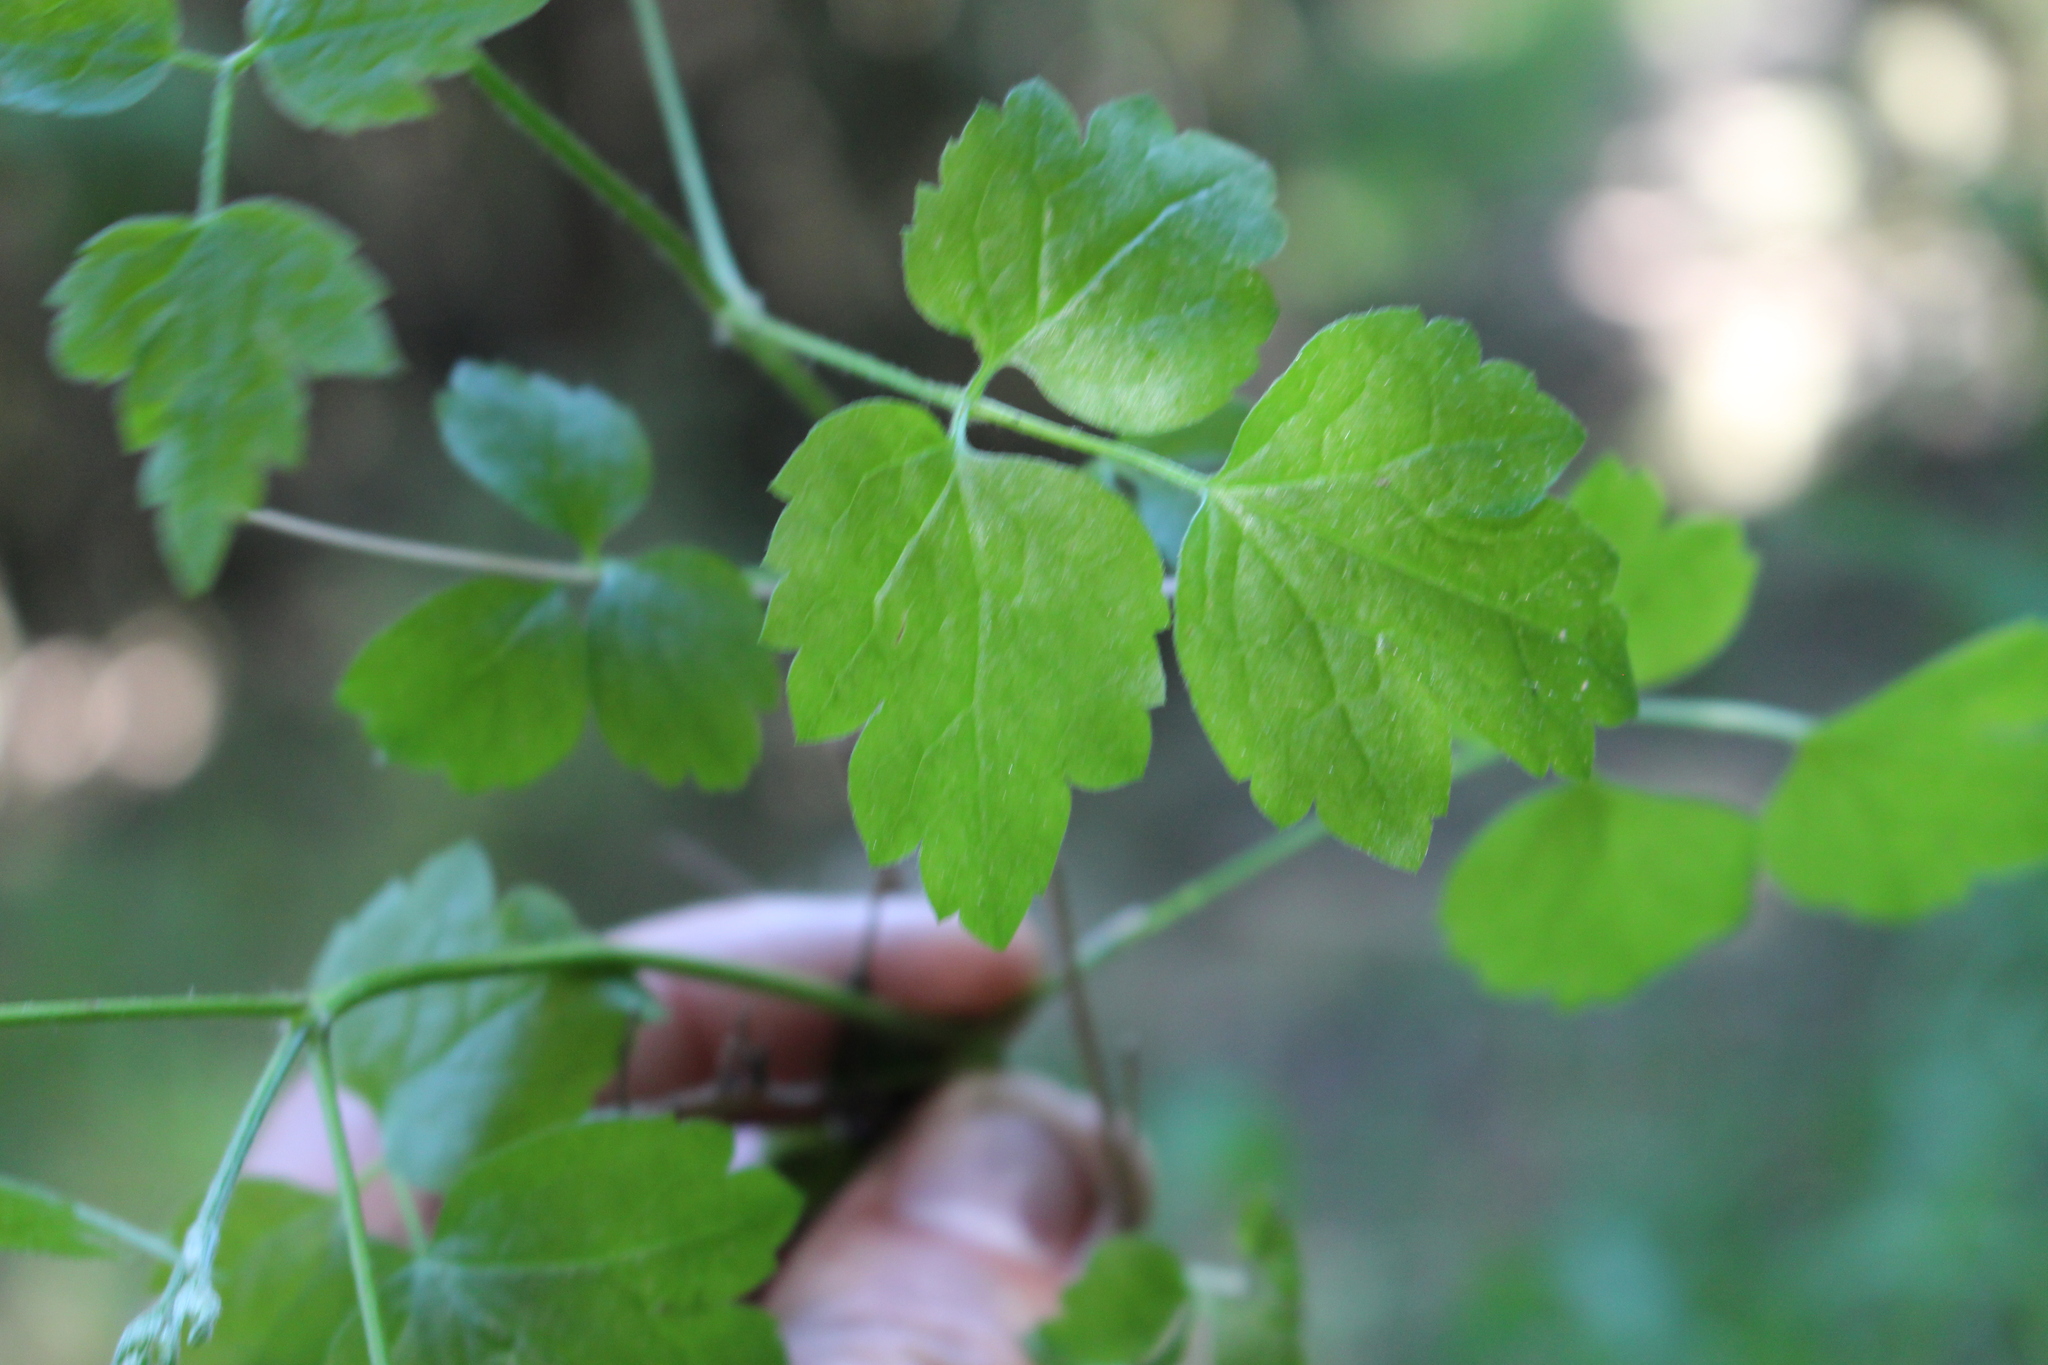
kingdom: Plantae
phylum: Tracheophyta
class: Magnoliopsida
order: Ranunculales
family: Ranunculaceae
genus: Clematis
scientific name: Clematis vitalba
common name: Evergreen clematis
